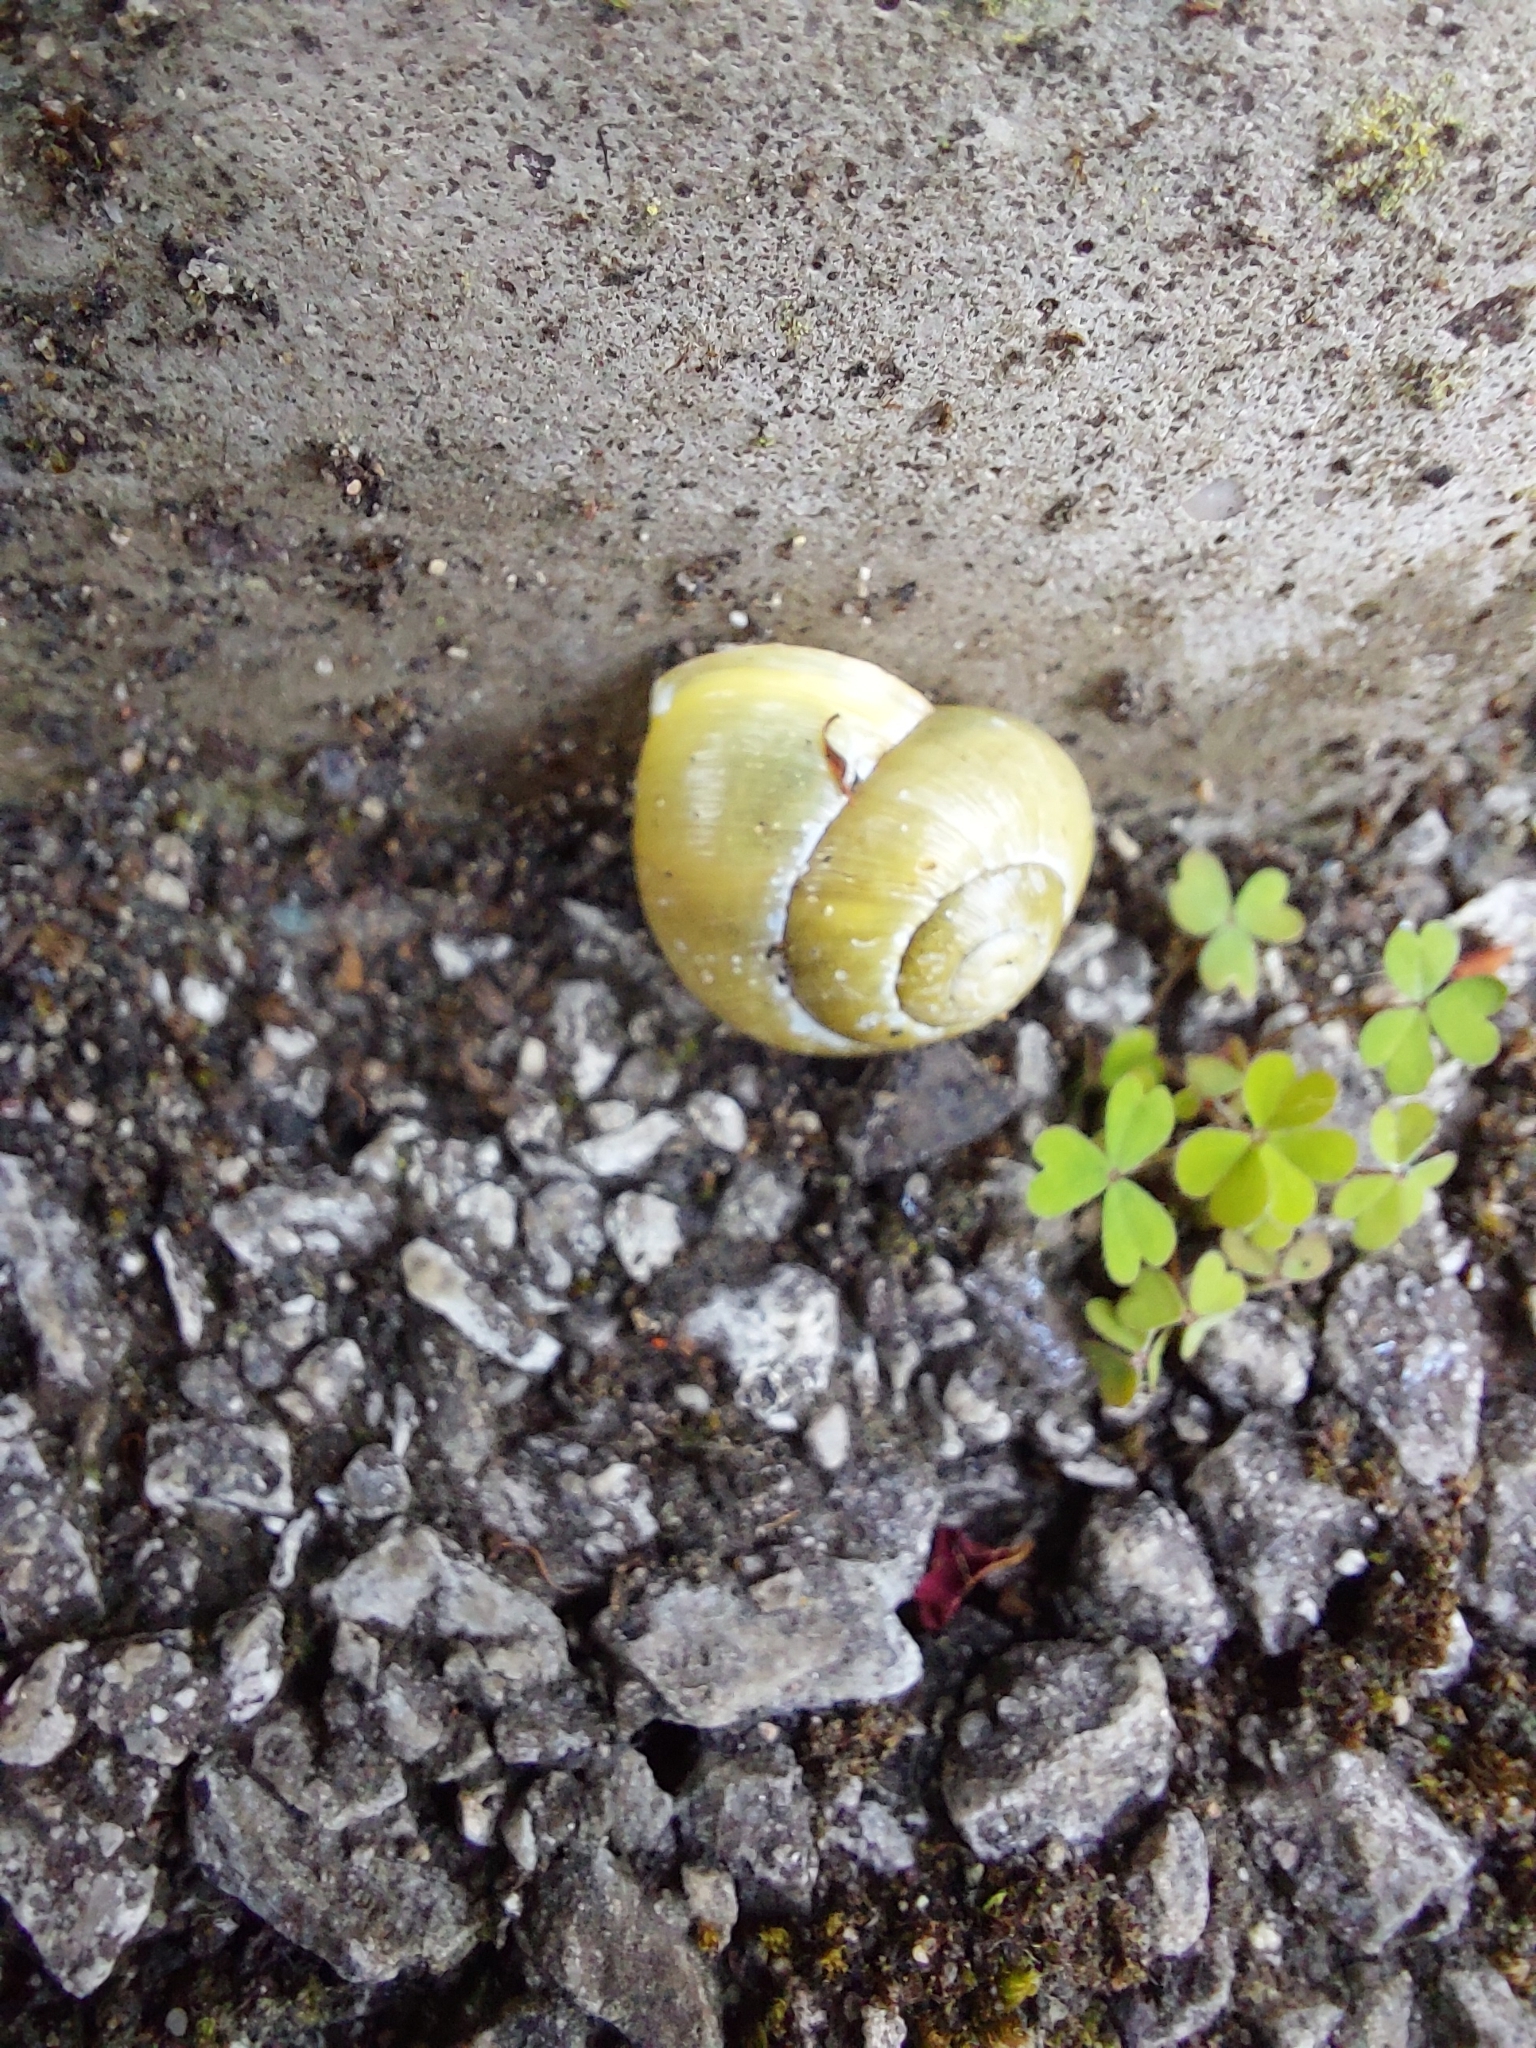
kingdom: Animalia
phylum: Mollusca
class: Gastropoda
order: Stylommatophora
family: Helicidae
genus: Cepaea
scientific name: Cepaea hortensis
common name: White-lip gardensnail
